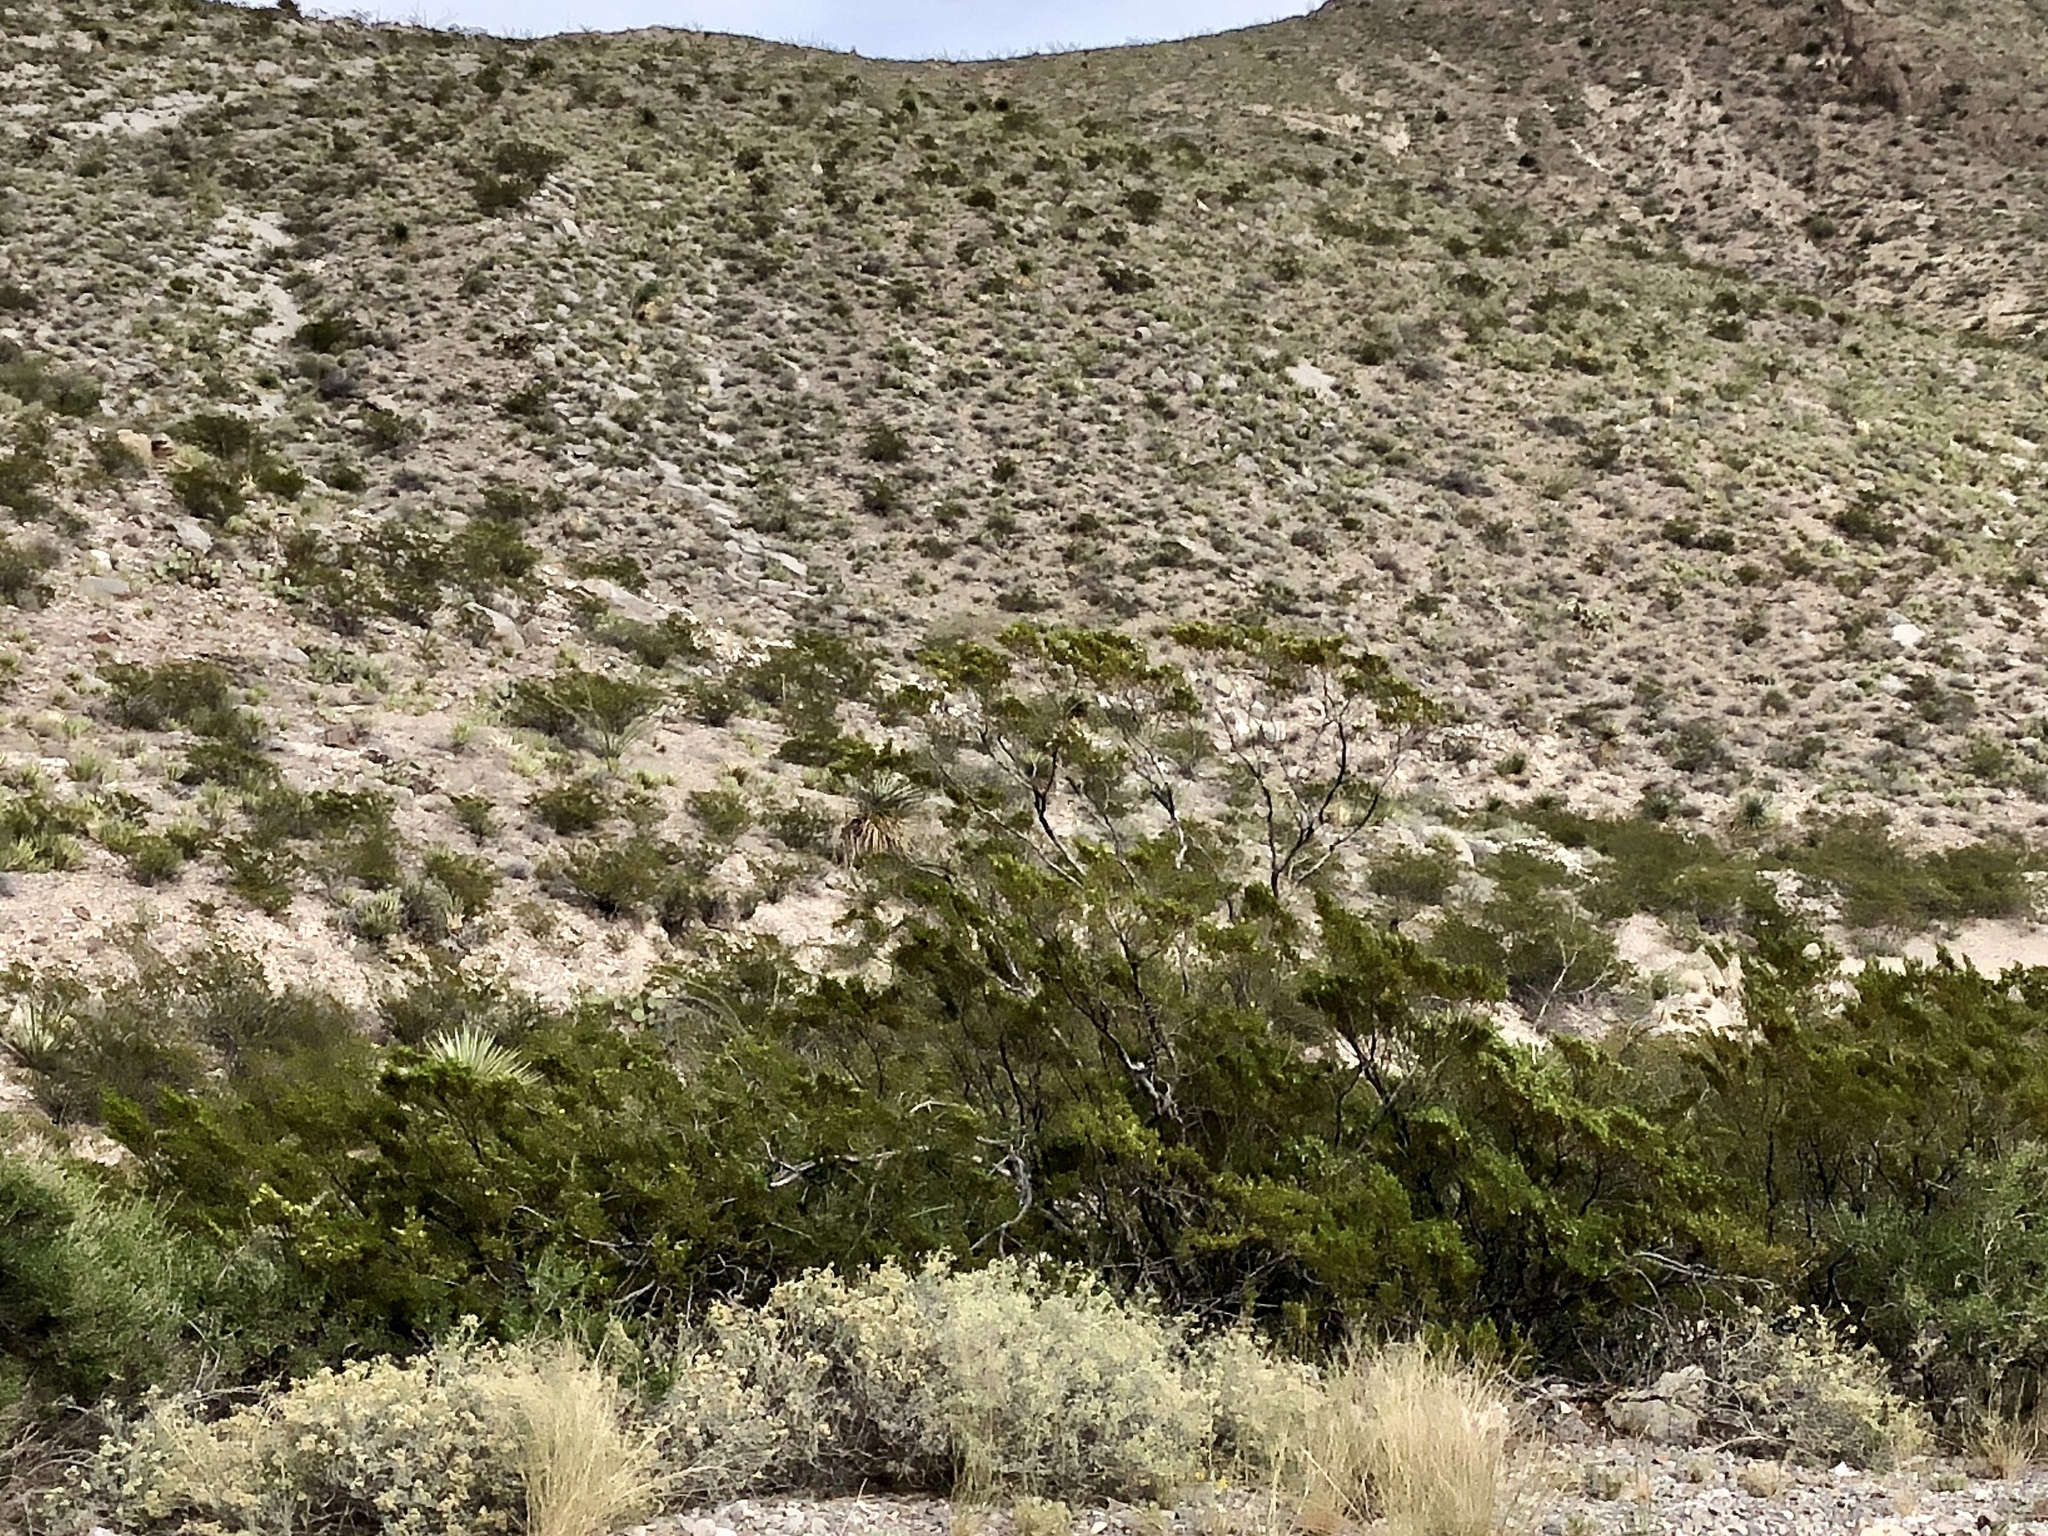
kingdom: Plantae
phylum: Tracheophyta
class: Magnoliopsida
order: Zygophyllales
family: Zygophyllaceae
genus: Larrea
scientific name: Larrea tridentata
